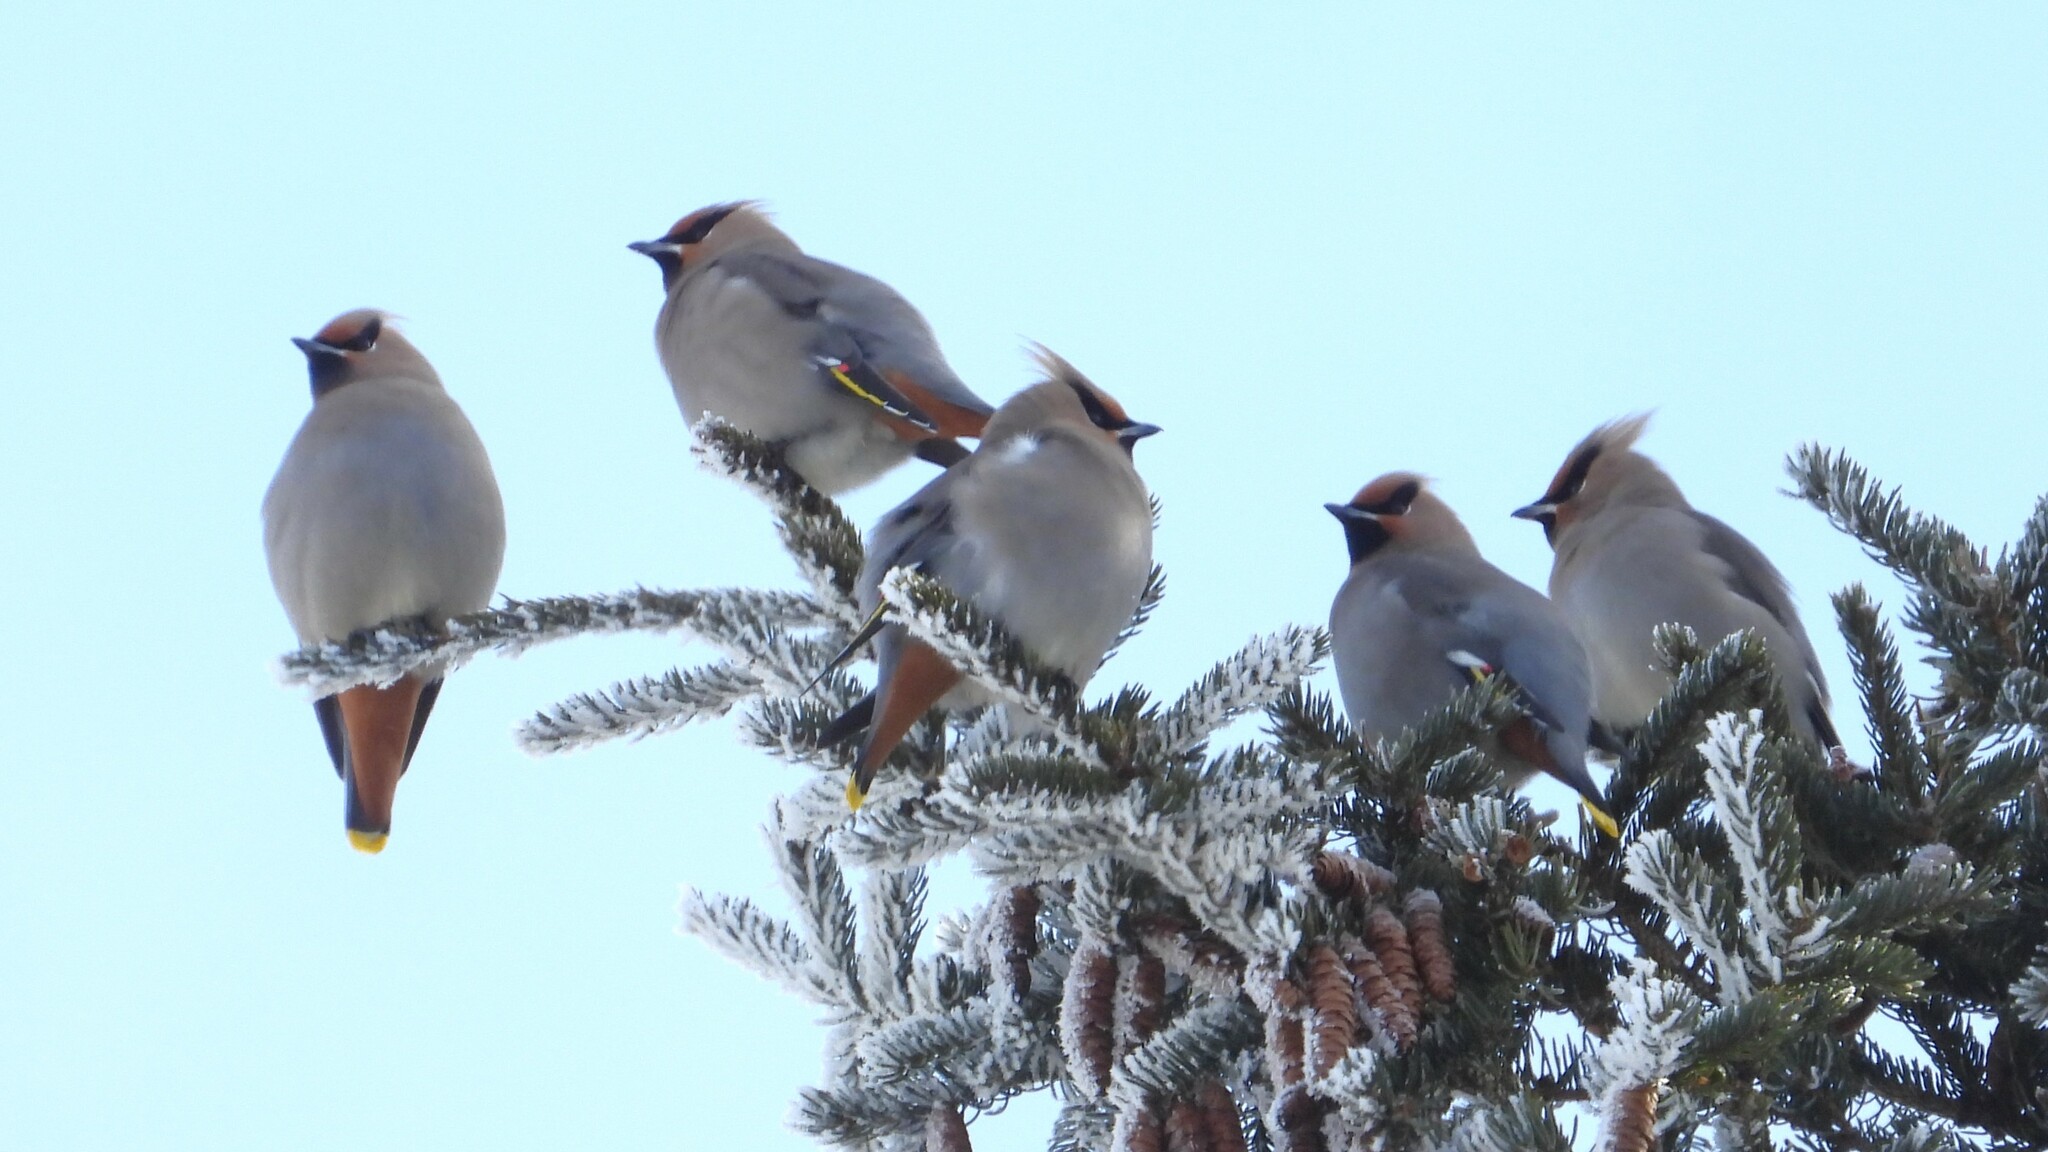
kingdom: Animalia
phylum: Chordata
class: Aves
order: Passeriformes
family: Bombycillidae
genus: Bombycilla
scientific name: Bombycilla garrulus
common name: Bohemian waxwing
